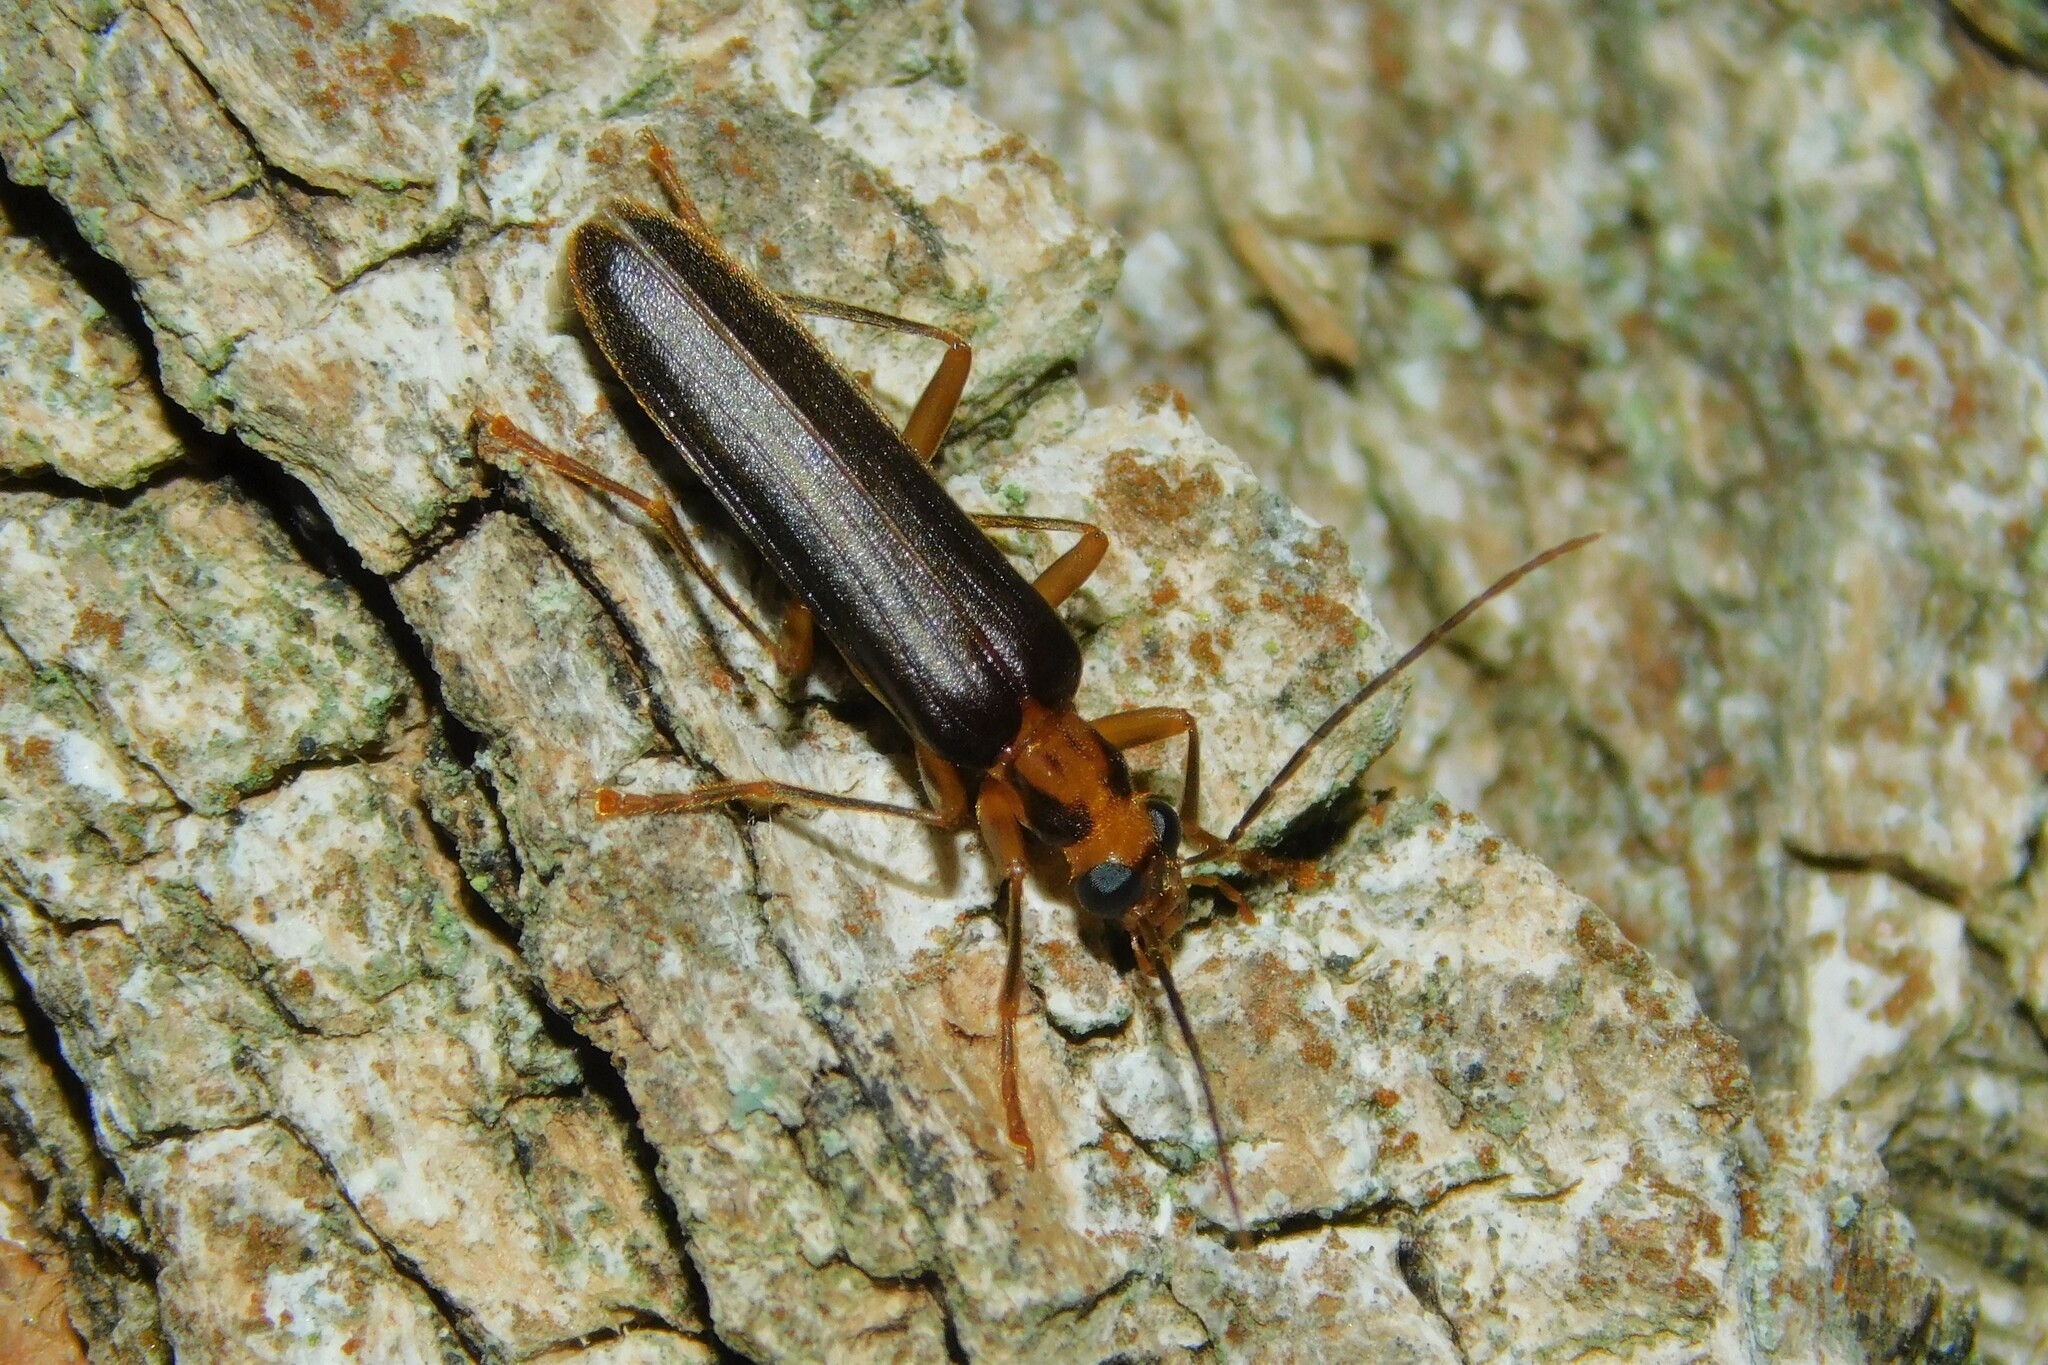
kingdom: Animalia
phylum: Arthropoda
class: Insecta
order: Coleoptera
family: Oedemeridae
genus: Nacerdes
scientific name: Nacerdes carniolica
